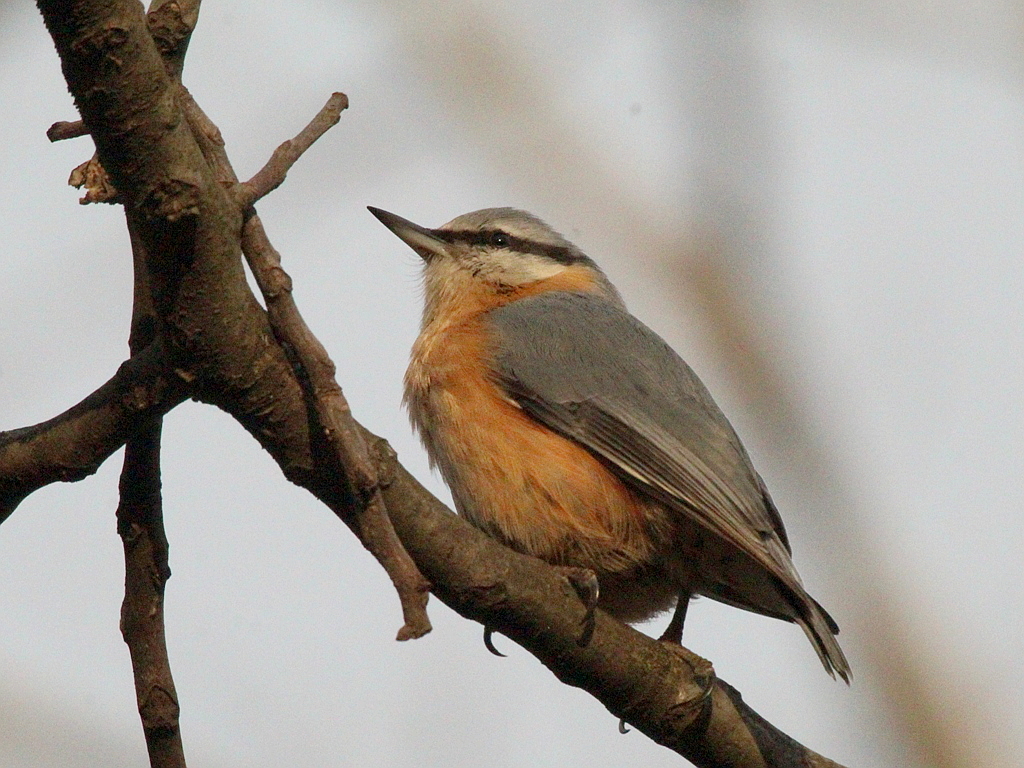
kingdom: Animalia
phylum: Chordata
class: Aves
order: Passeriformes
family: Sittidae
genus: Sitta
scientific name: Sitta europaea
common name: Eurasian nuthatch
